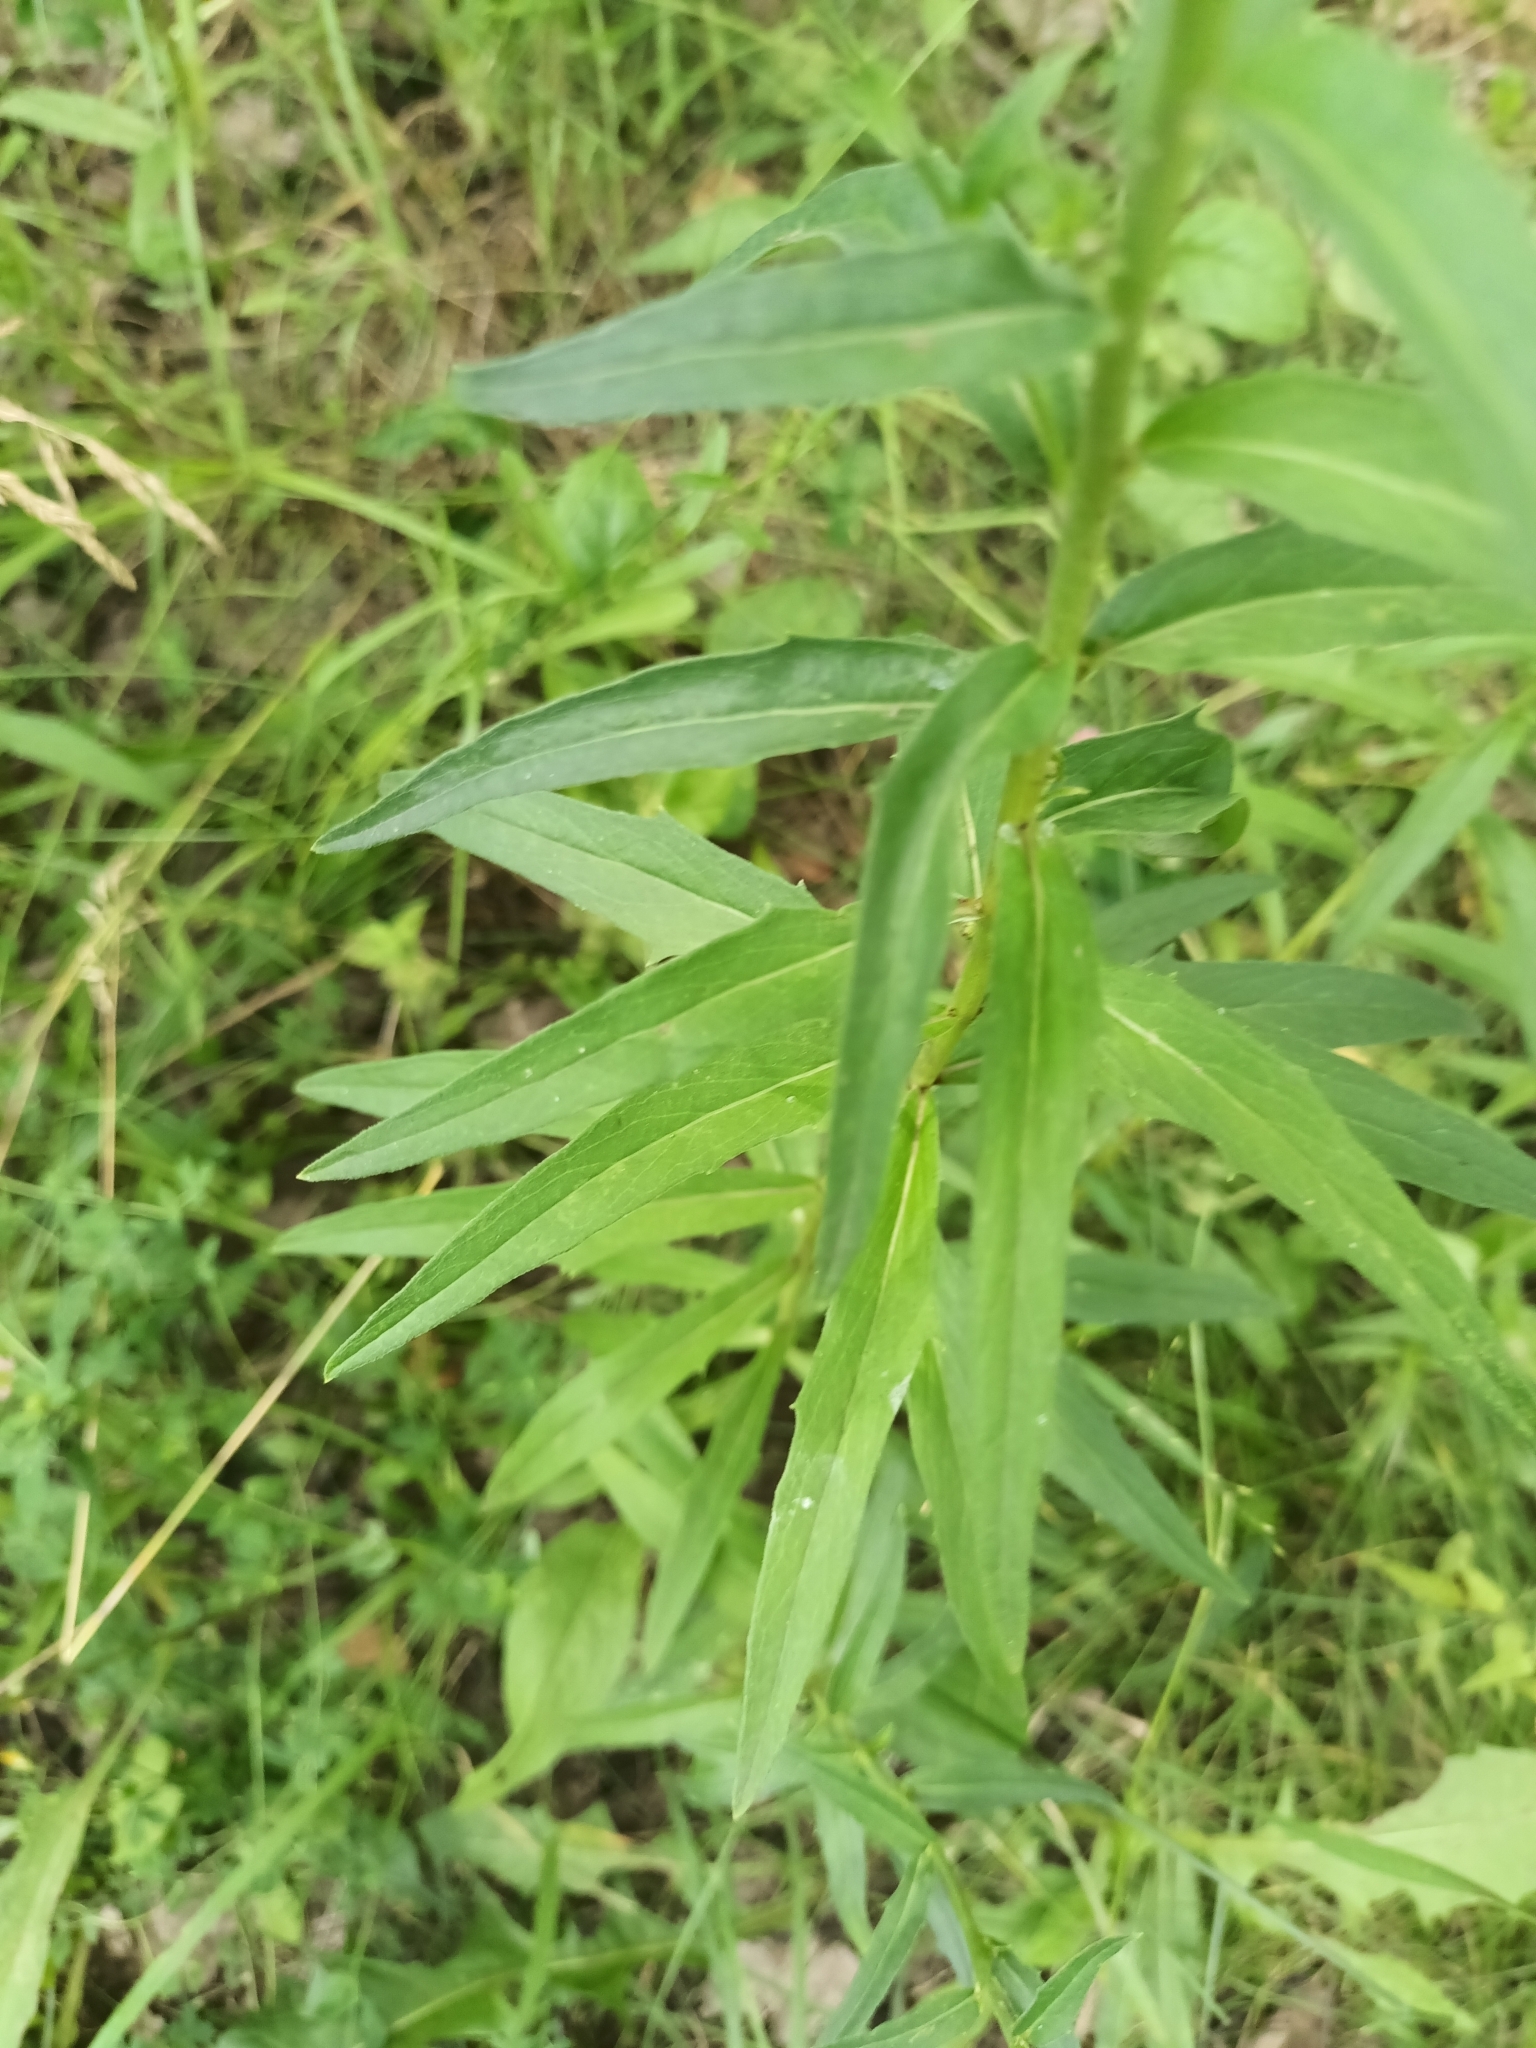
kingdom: Plantae
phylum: Tracheophyta
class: Magnoliopsida
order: Asterales
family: Asteraceae
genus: Hieracium
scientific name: Hieracium umbellatum
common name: Northern hawkweed
